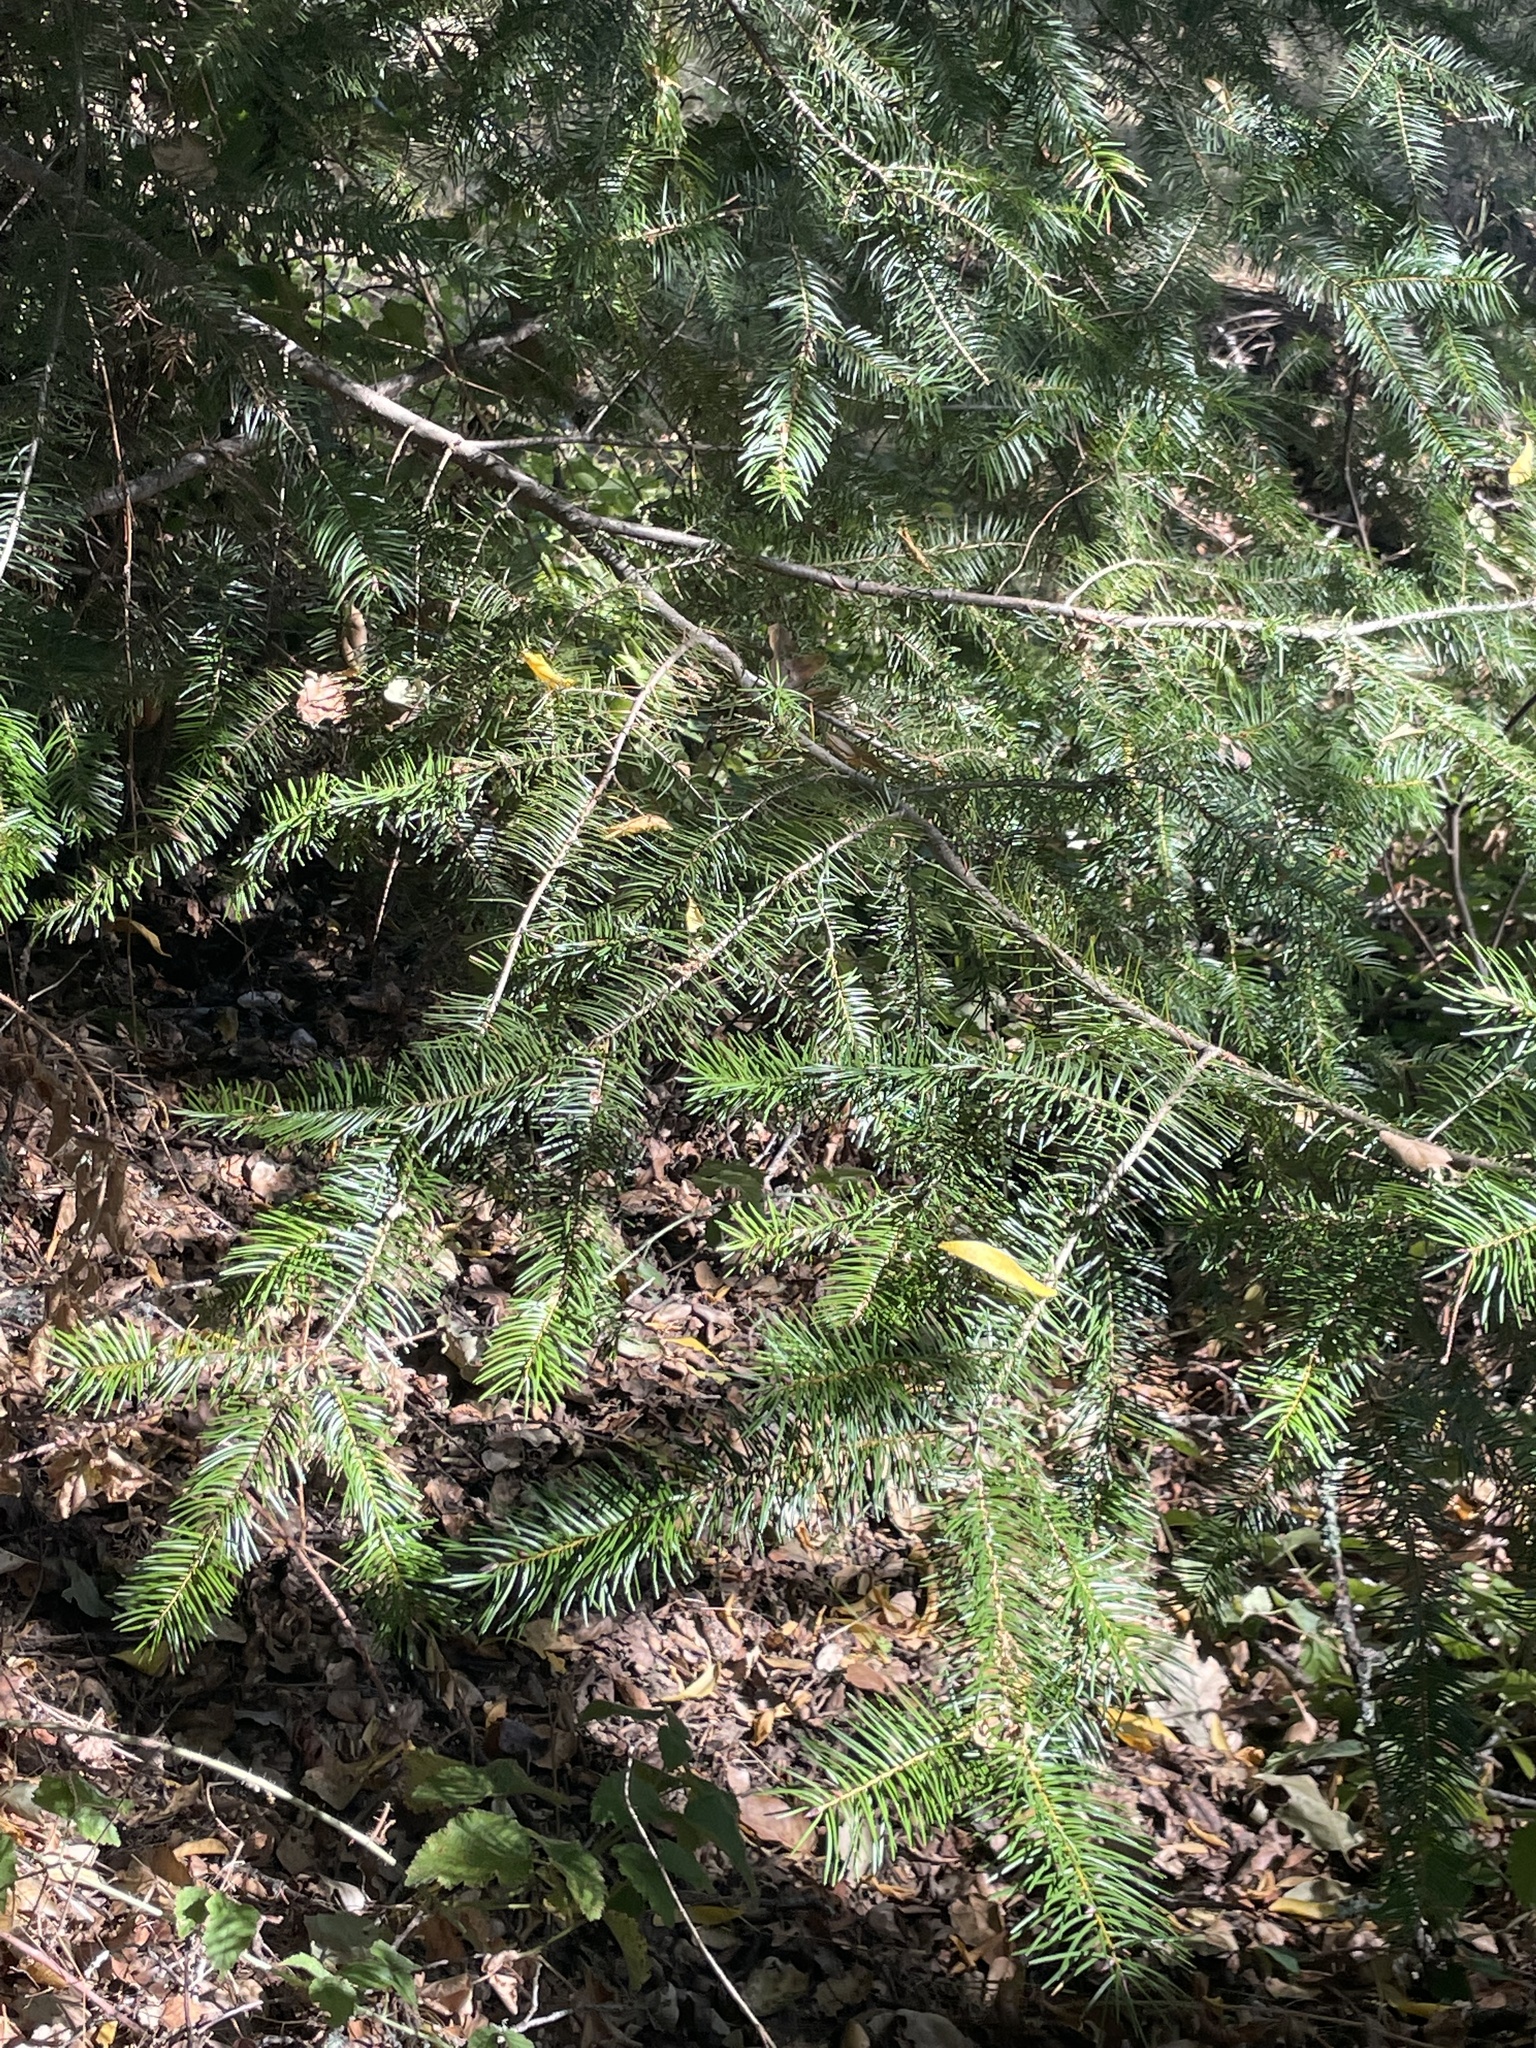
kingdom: Plantae
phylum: Tracheophyta
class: Pinopsida
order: Pinales
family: Pinaceae
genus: Pseudotsuga
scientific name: Pseudotsuga menziesii
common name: Douglas fir
